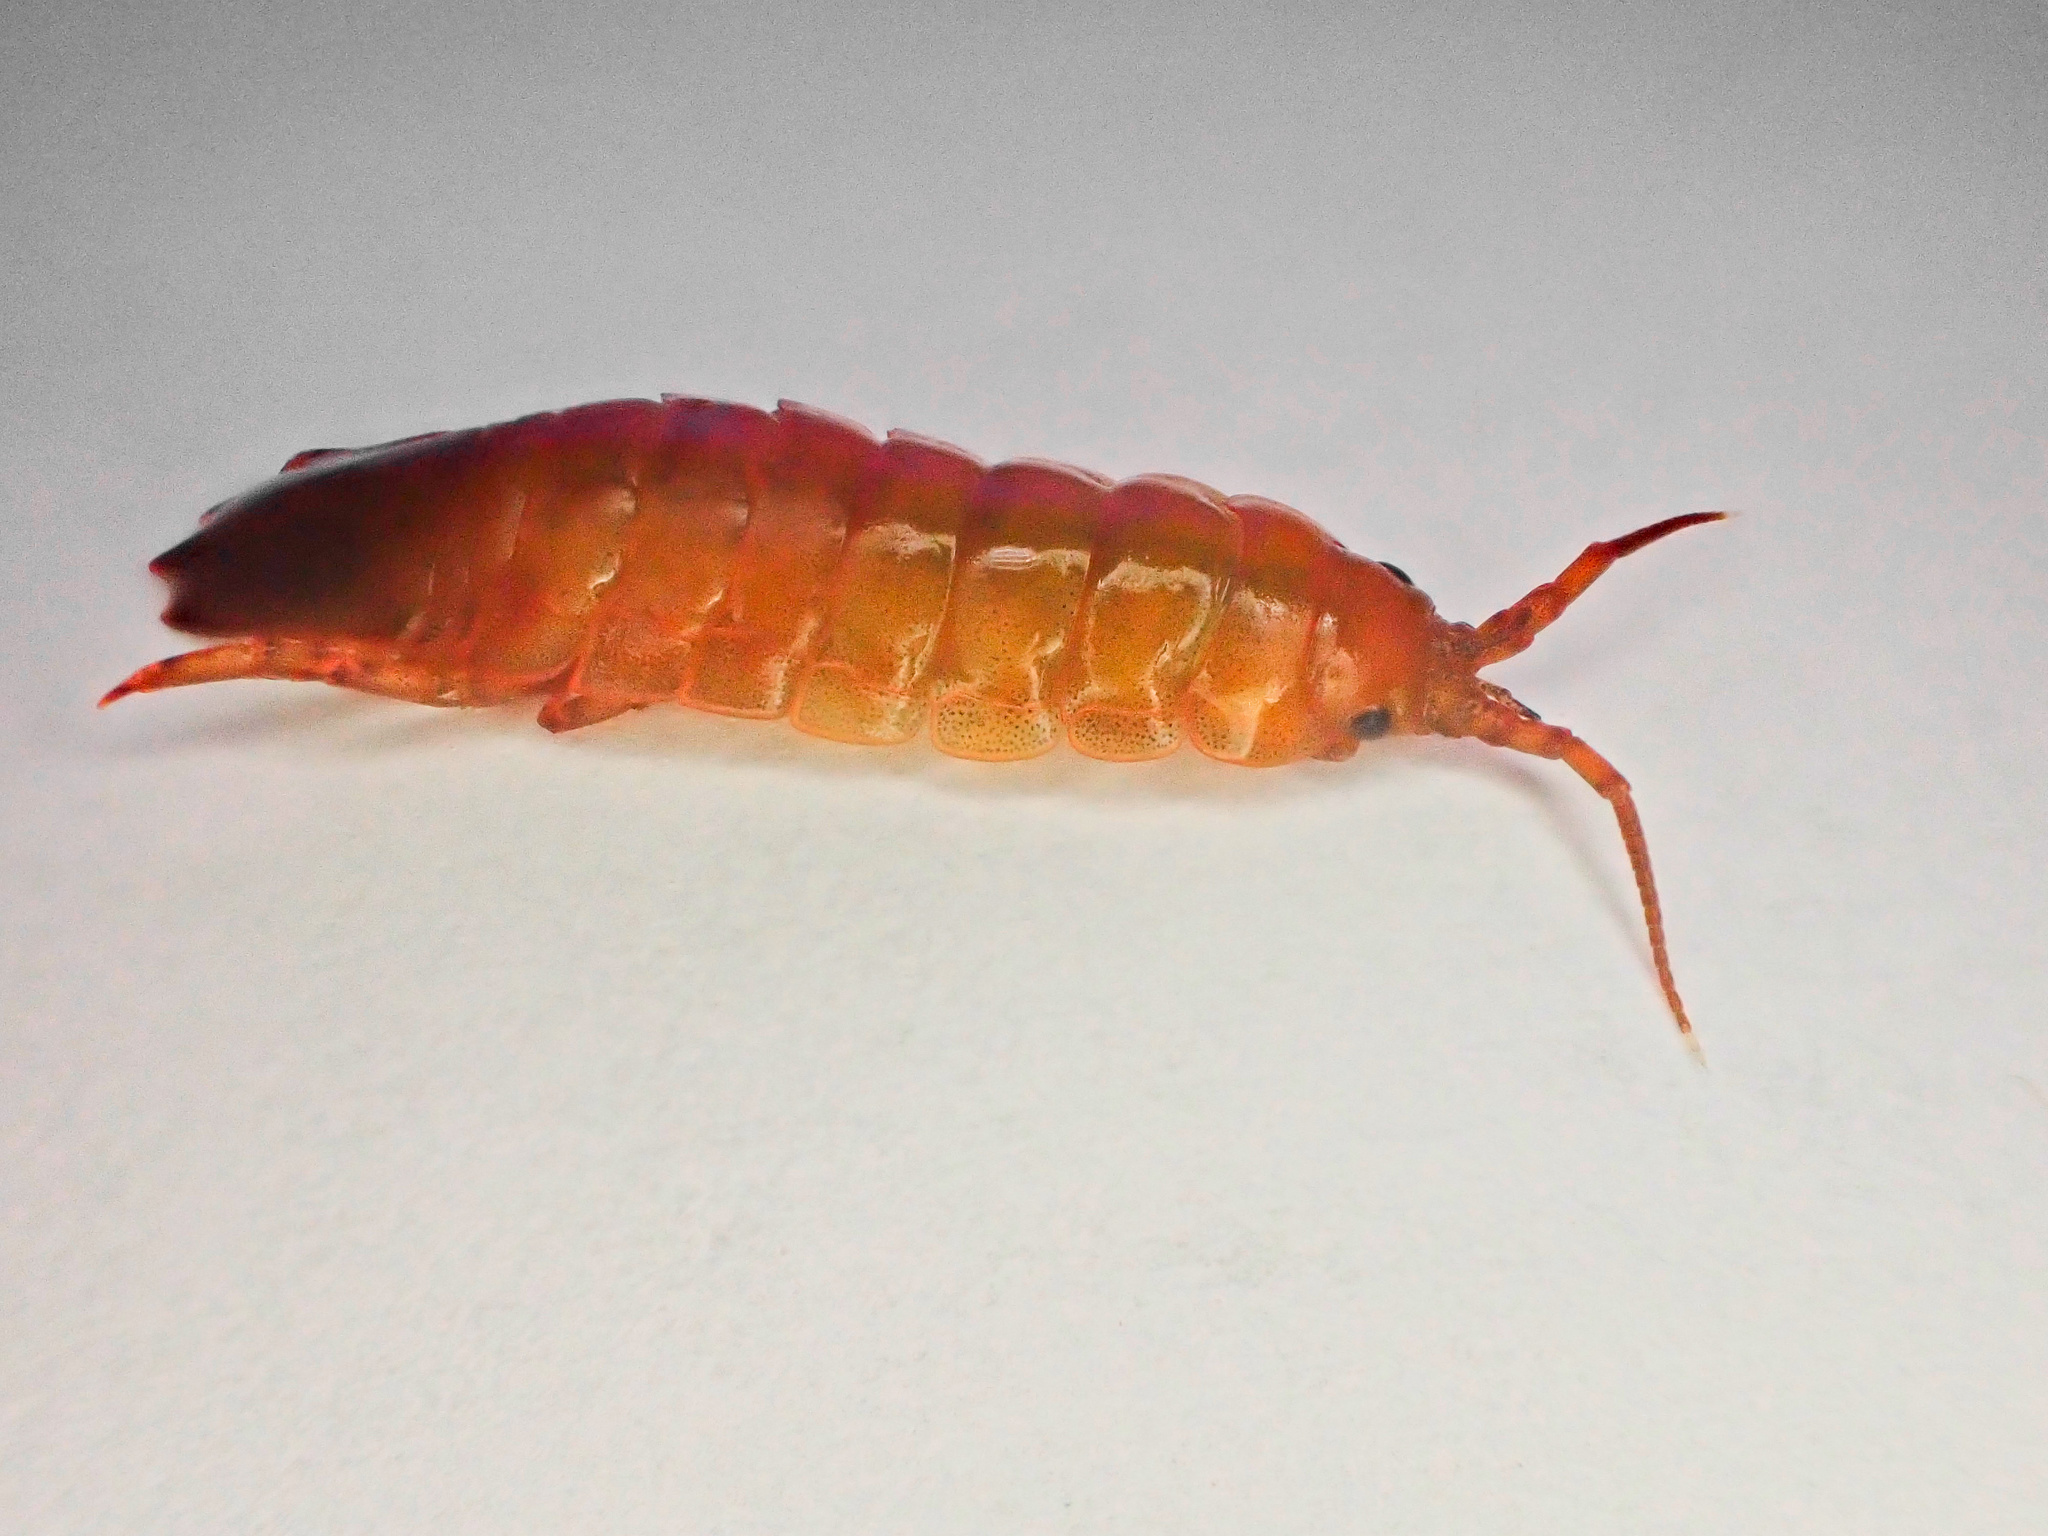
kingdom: Animalia
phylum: Arthropoda
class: Malacostraca
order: Isopoda
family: Idoteidae
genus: Idotea
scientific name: Idotea balthica
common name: Baltic isopod
